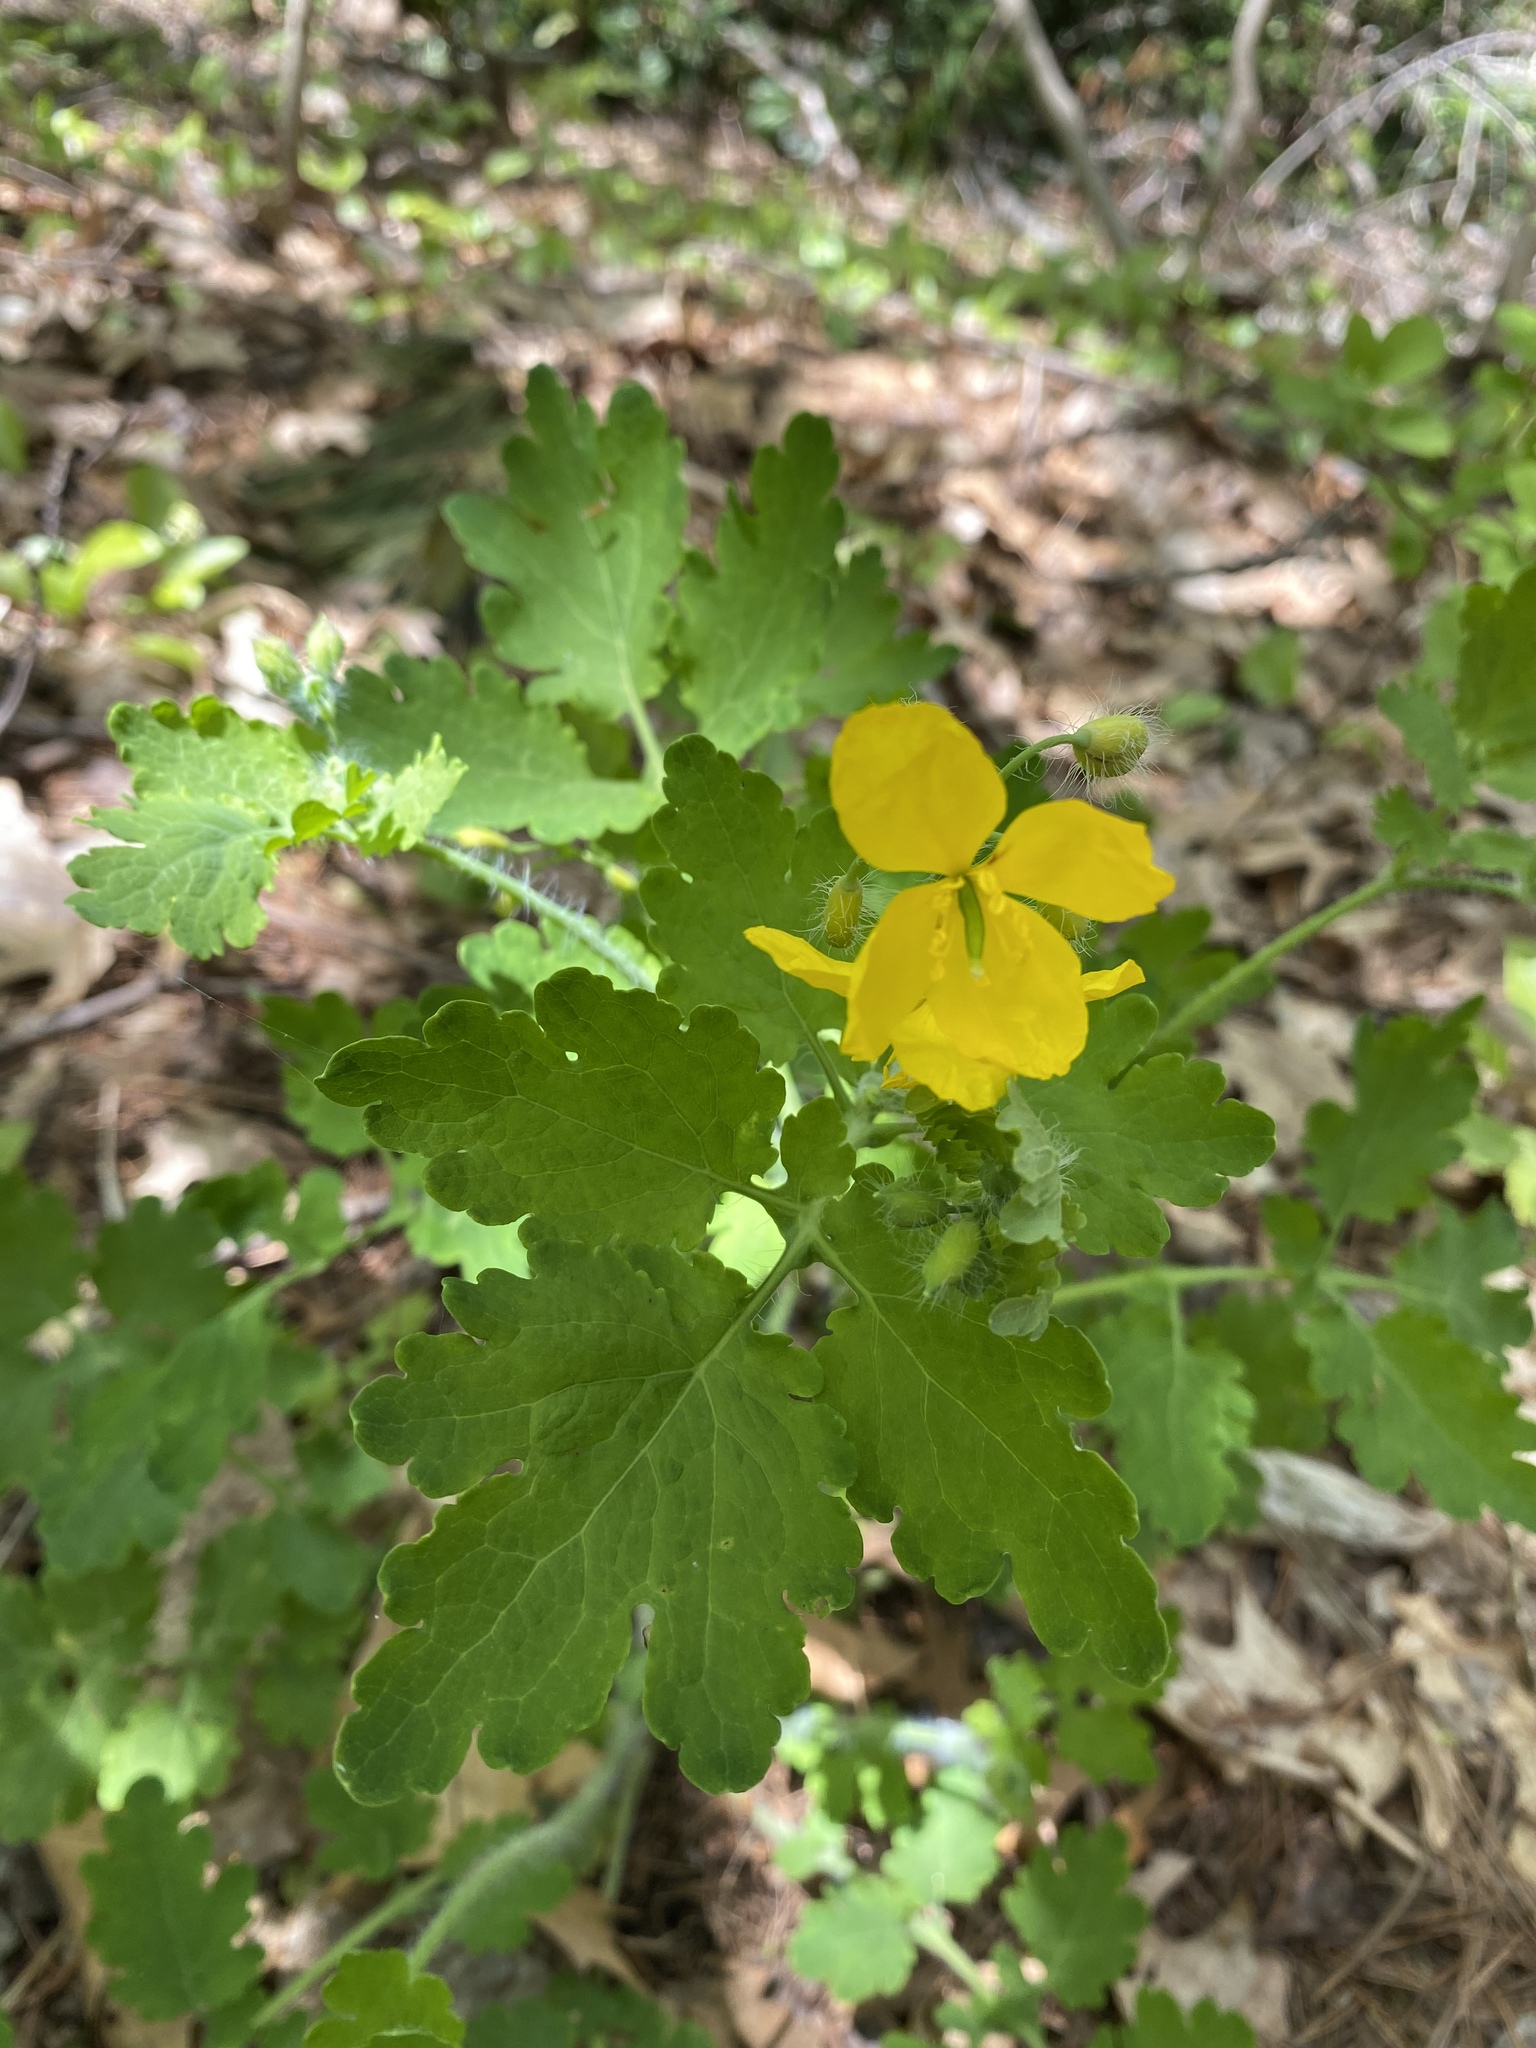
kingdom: Plantae
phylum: Tracheophyta
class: Magnoliopsida
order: Ranunculales
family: Papaveraceae
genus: Chelidonium
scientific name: Chelidonium majus
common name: Greater celandine
